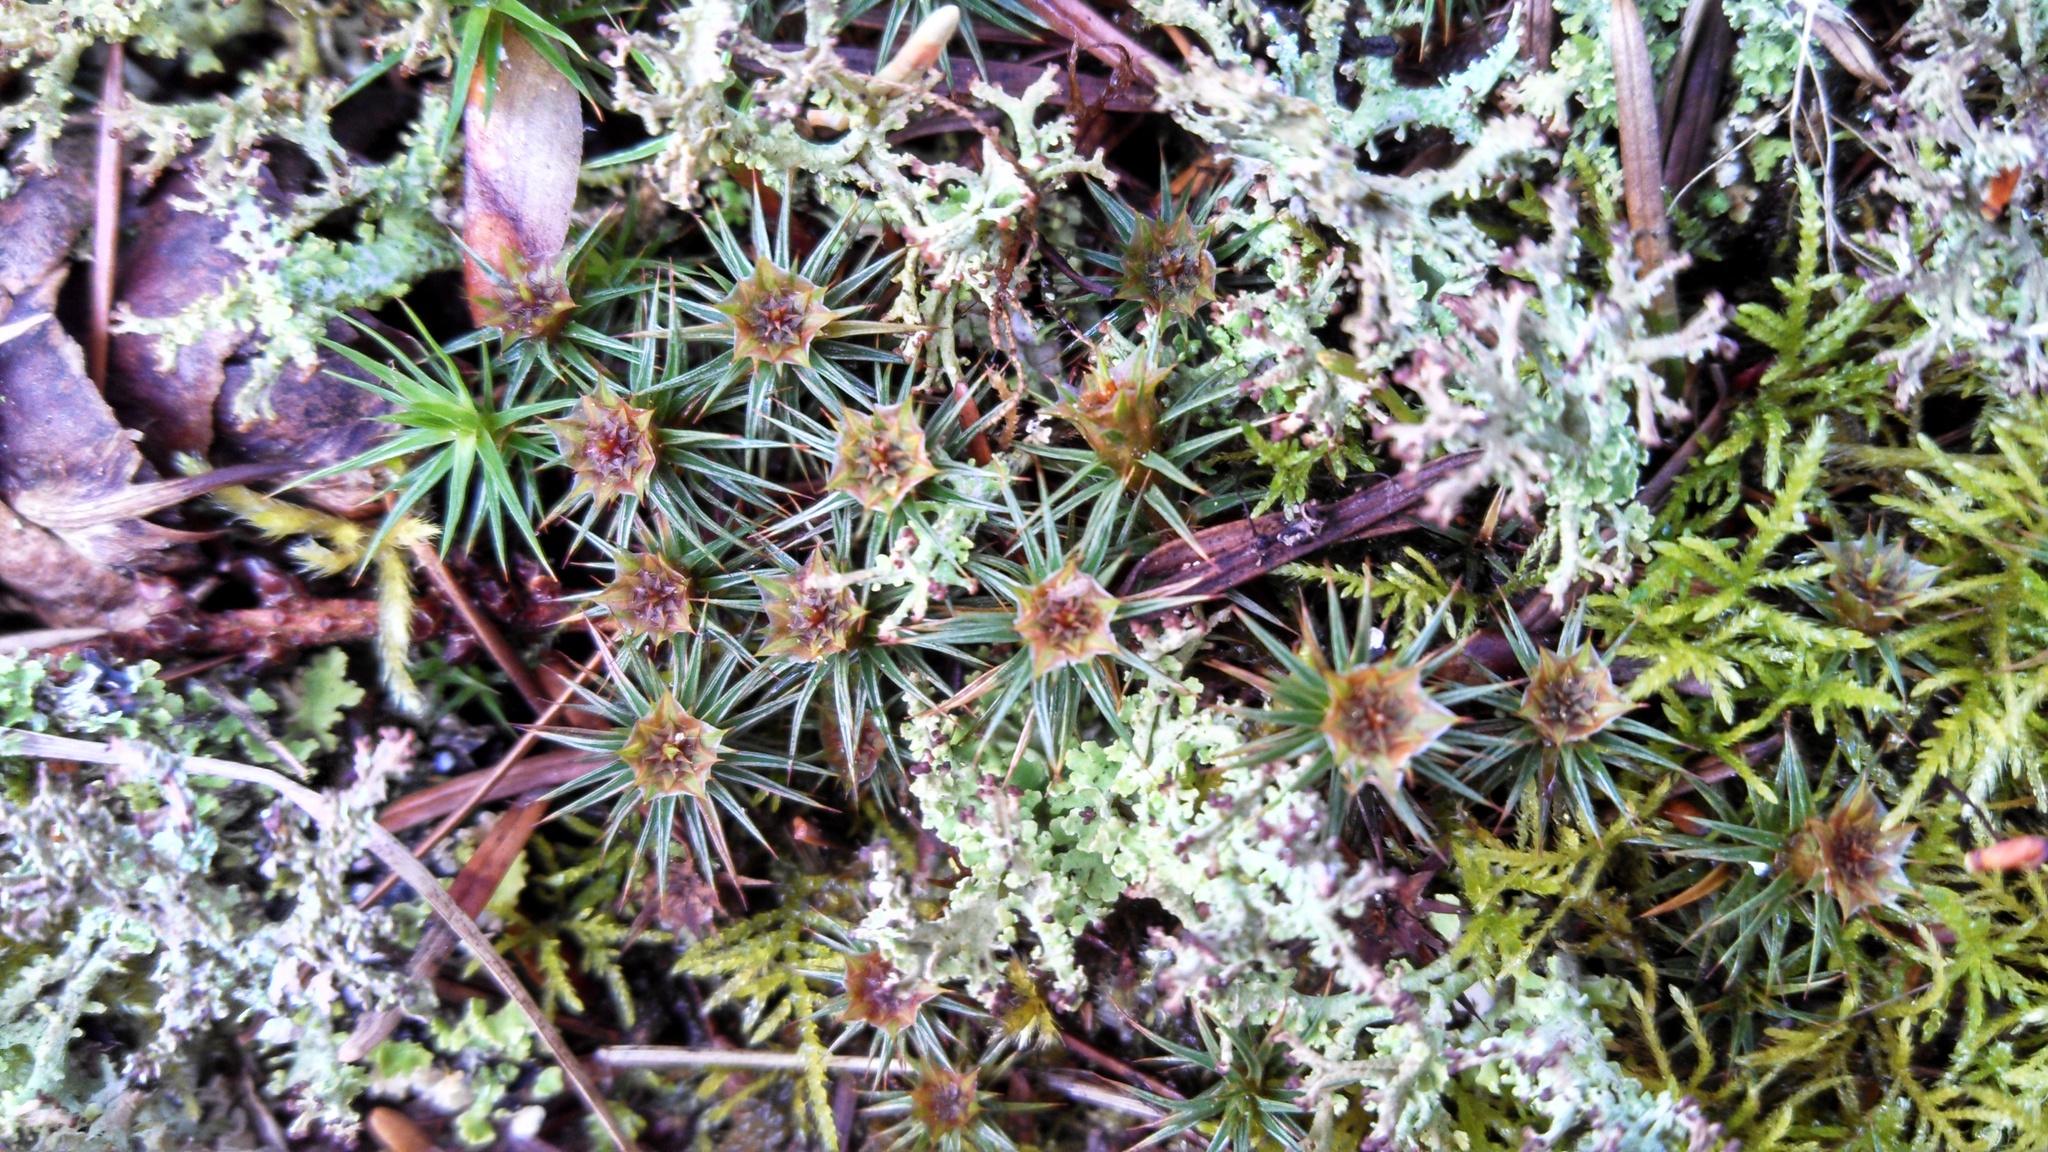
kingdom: Plantae
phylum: Bryophyta
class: Polytrichopsida
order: Polytrichales
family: Polytrichaceae
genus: Polytrichum
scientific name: Polytrichum juniperinum
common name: Juniper haircap moss
